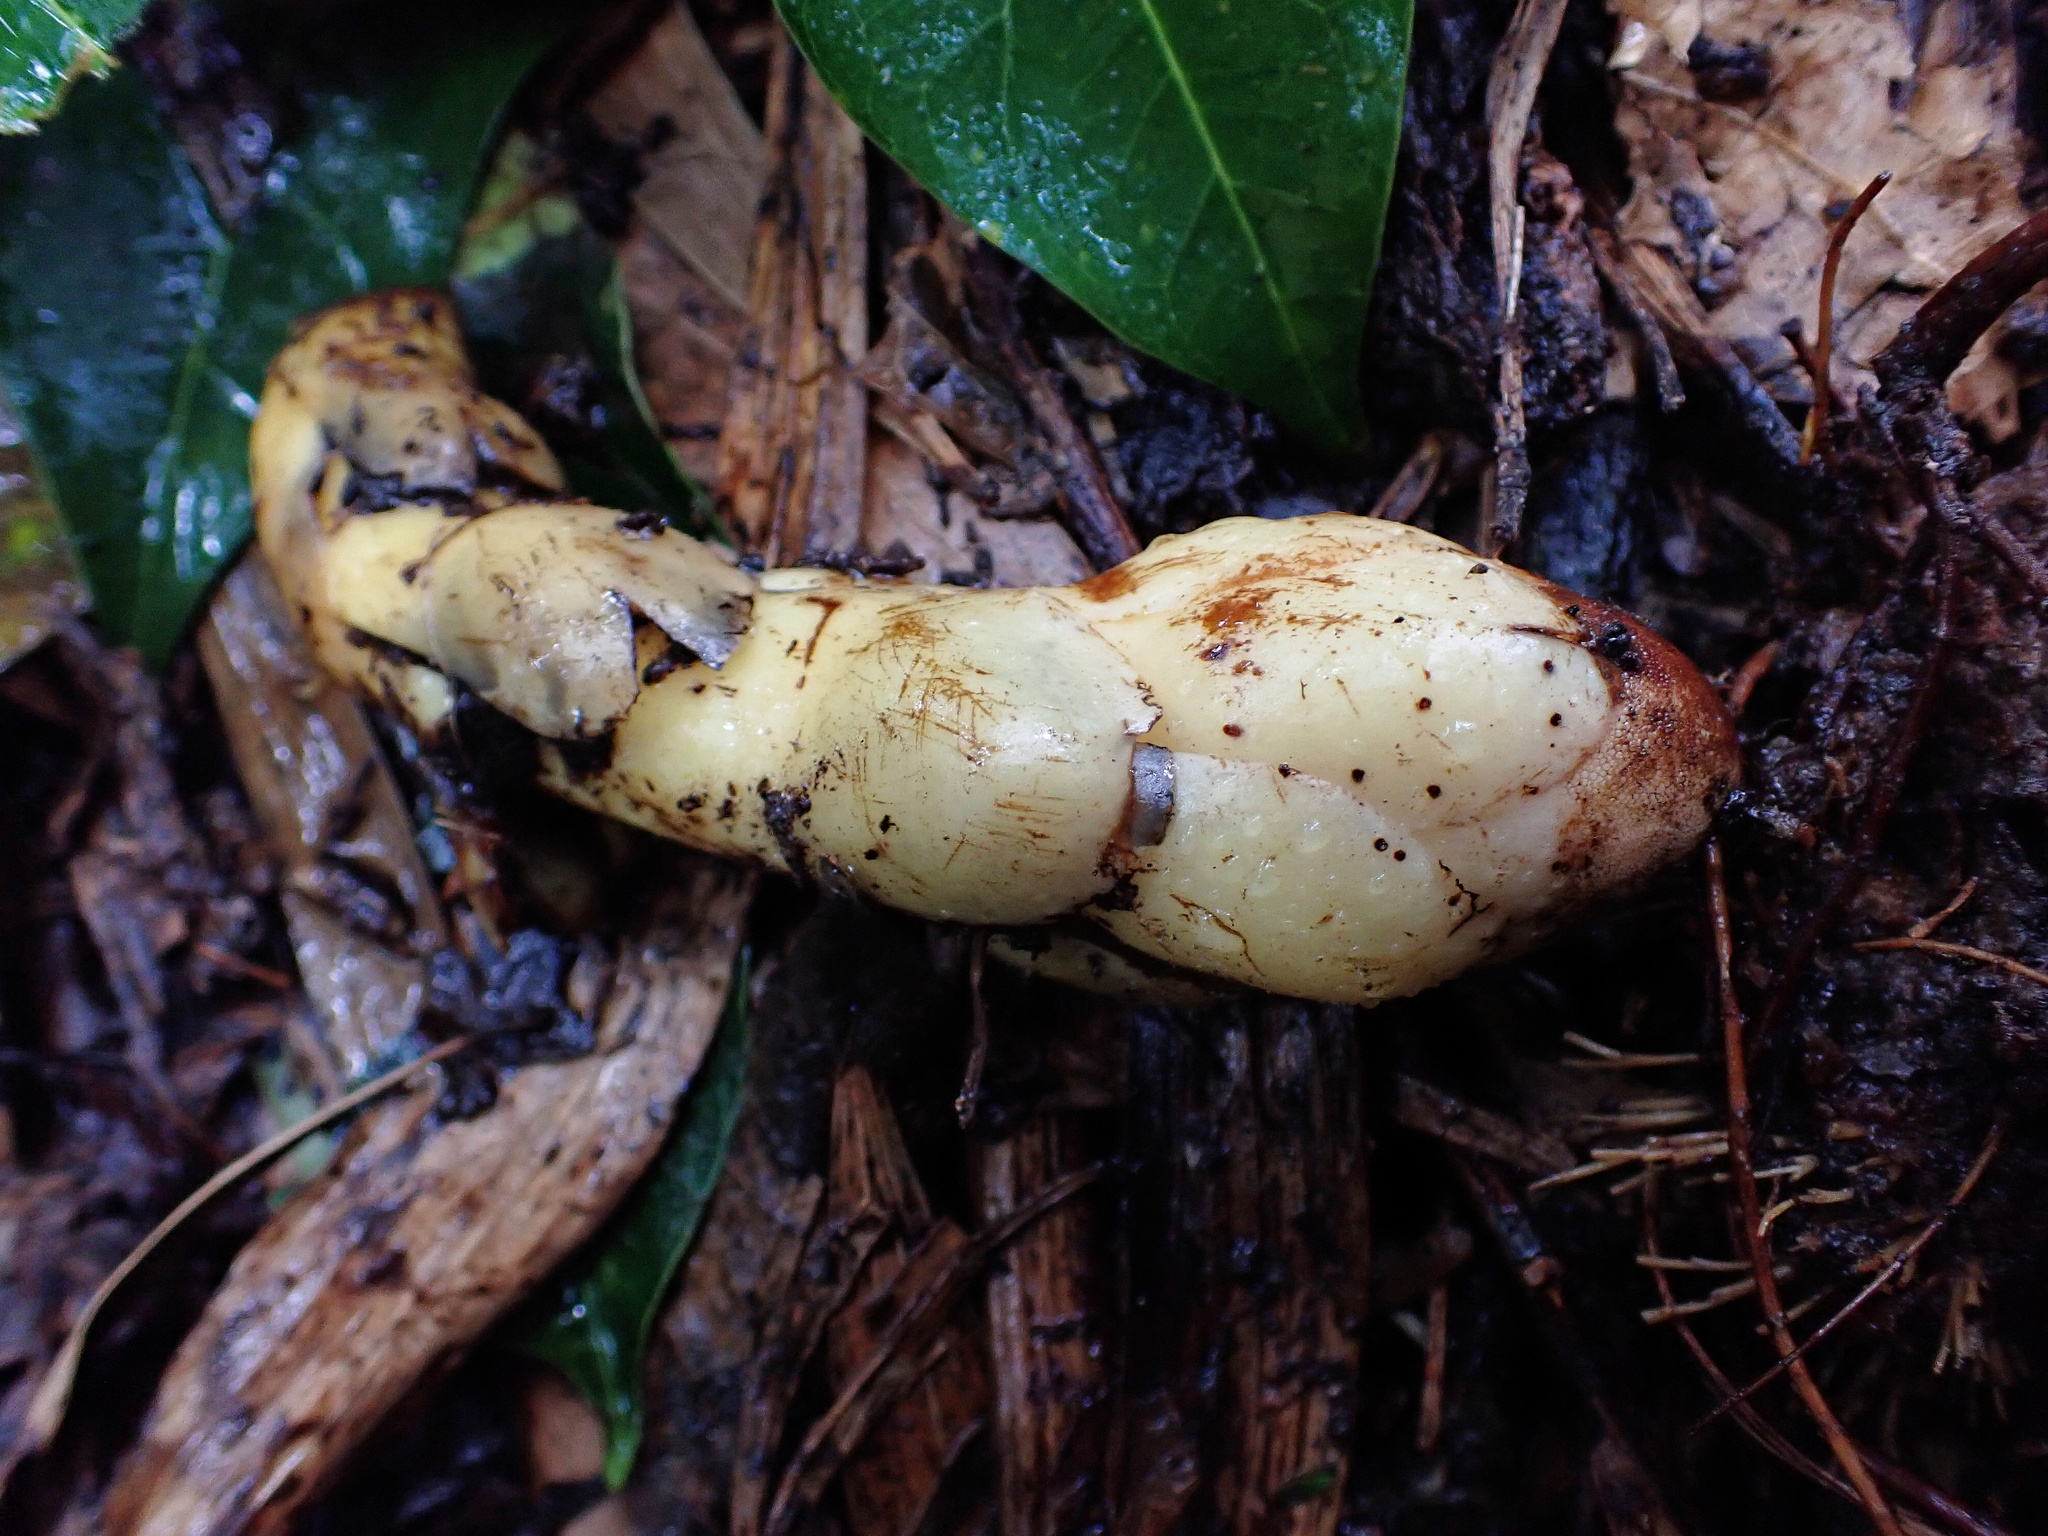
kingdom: Plantae
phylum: Tracheophyta
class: Magnoliopsida
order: Santalales
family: Balanophoraceae
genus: Balanophora
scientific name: Balanophora fungosa
